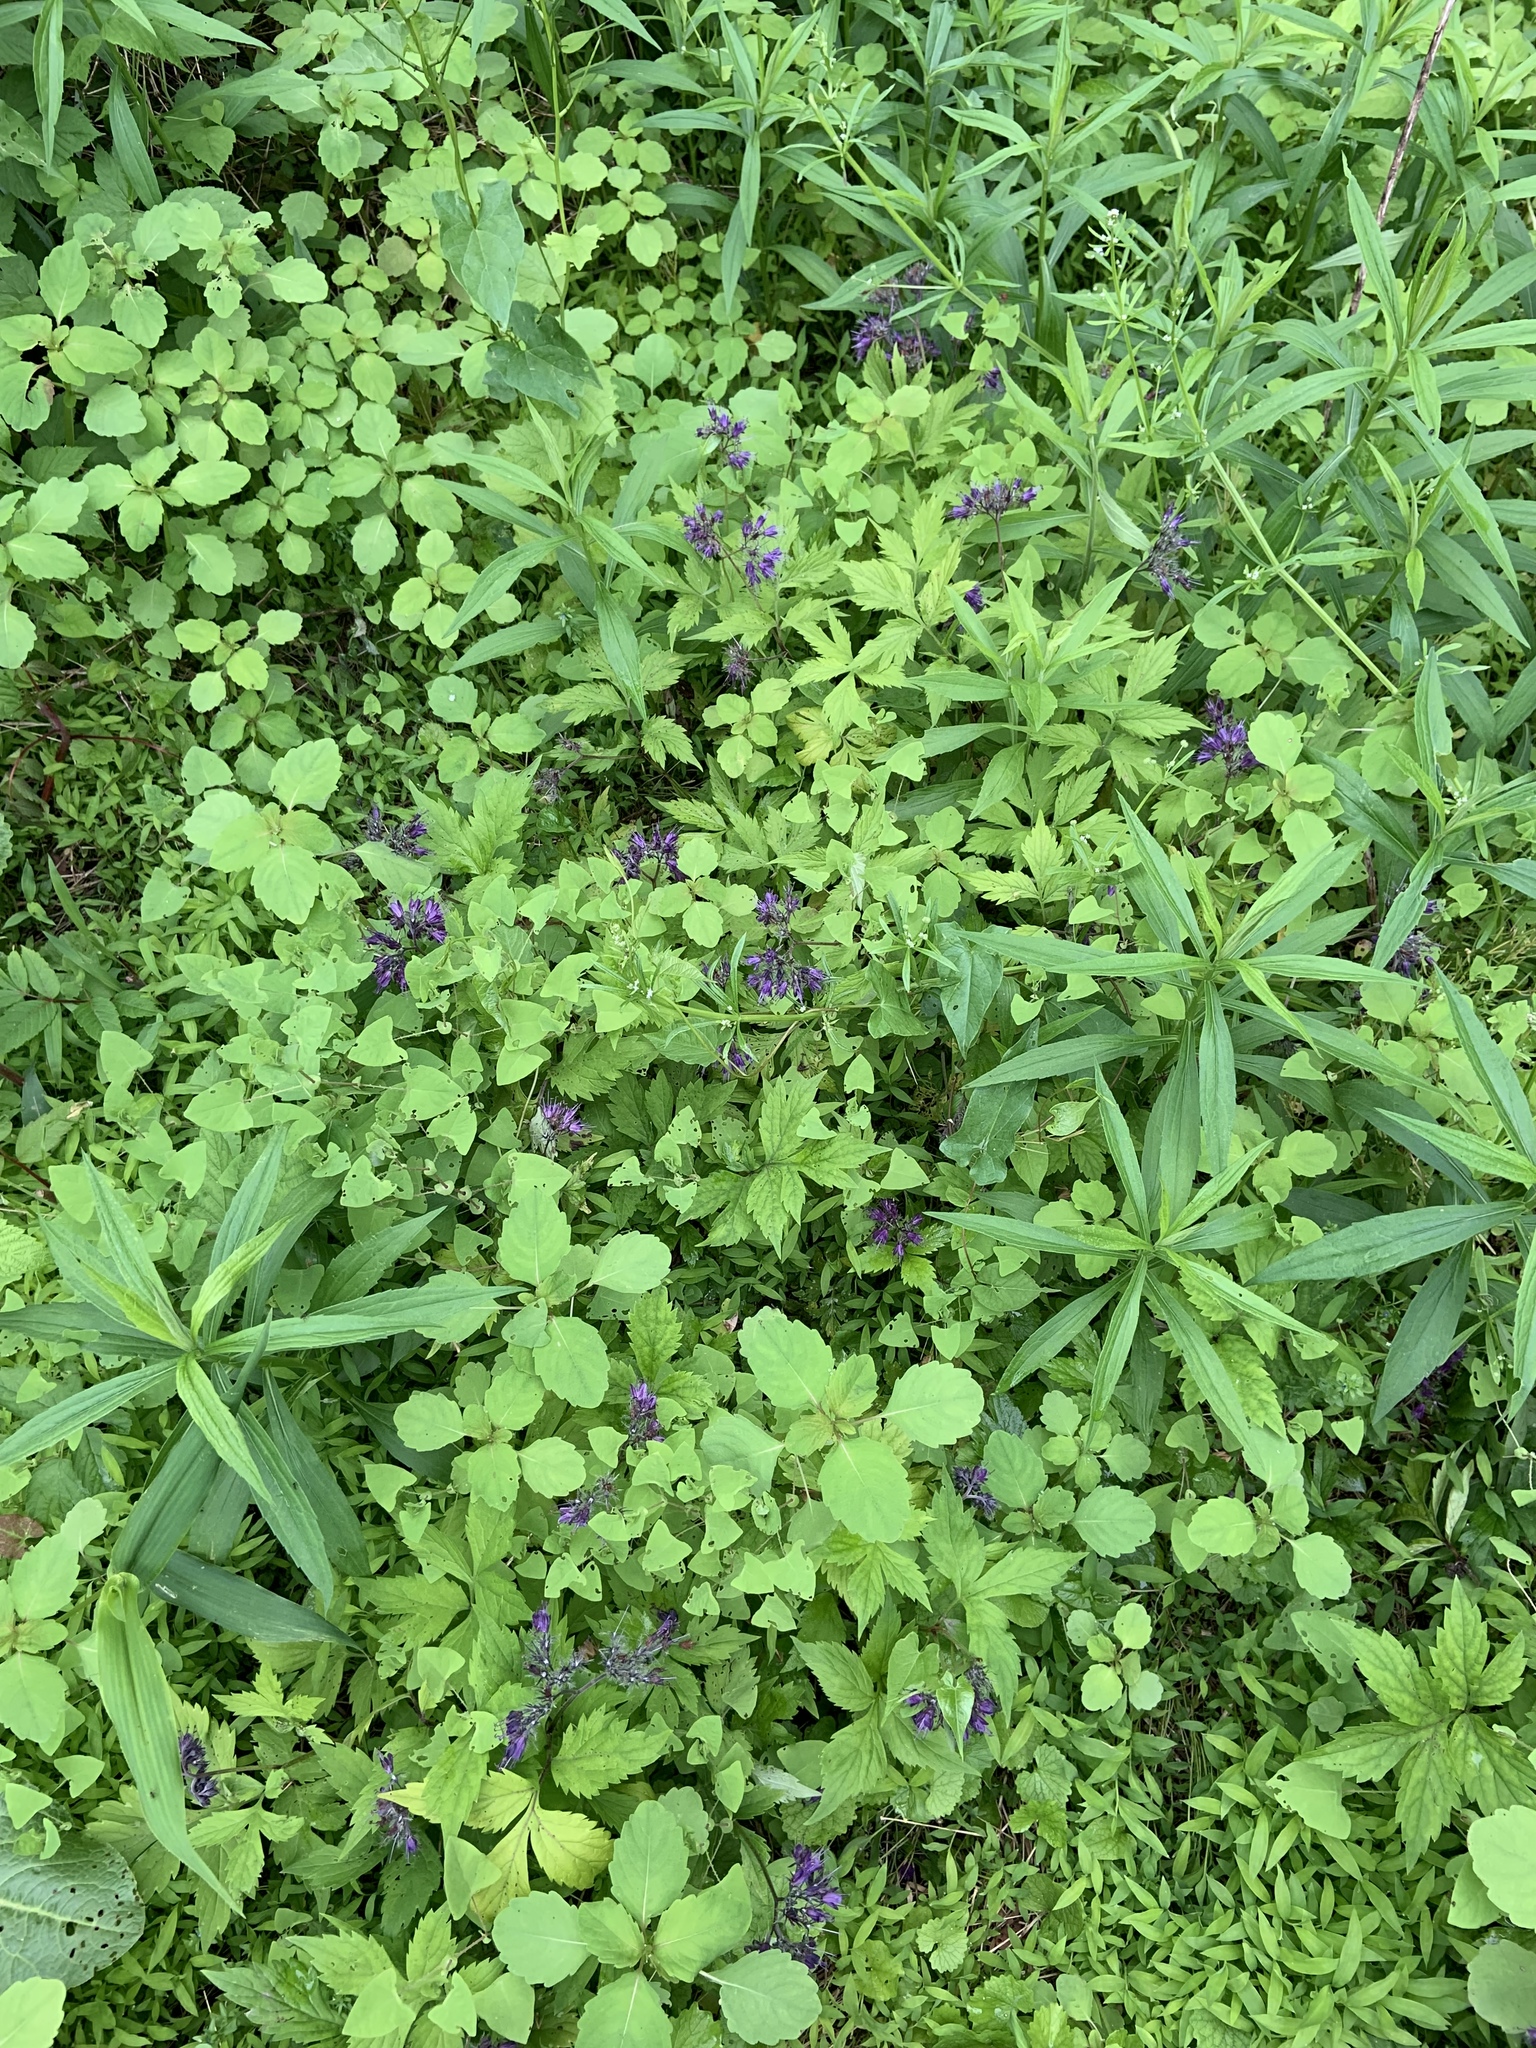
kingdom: Plantae
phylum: Tracheophyta
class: Magnoliopsida
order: Boraginales
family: Hydrophyllaceae
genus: Hydrophyllum
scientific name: Hydrophyllum virginianum
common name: Virginia waterleaf
